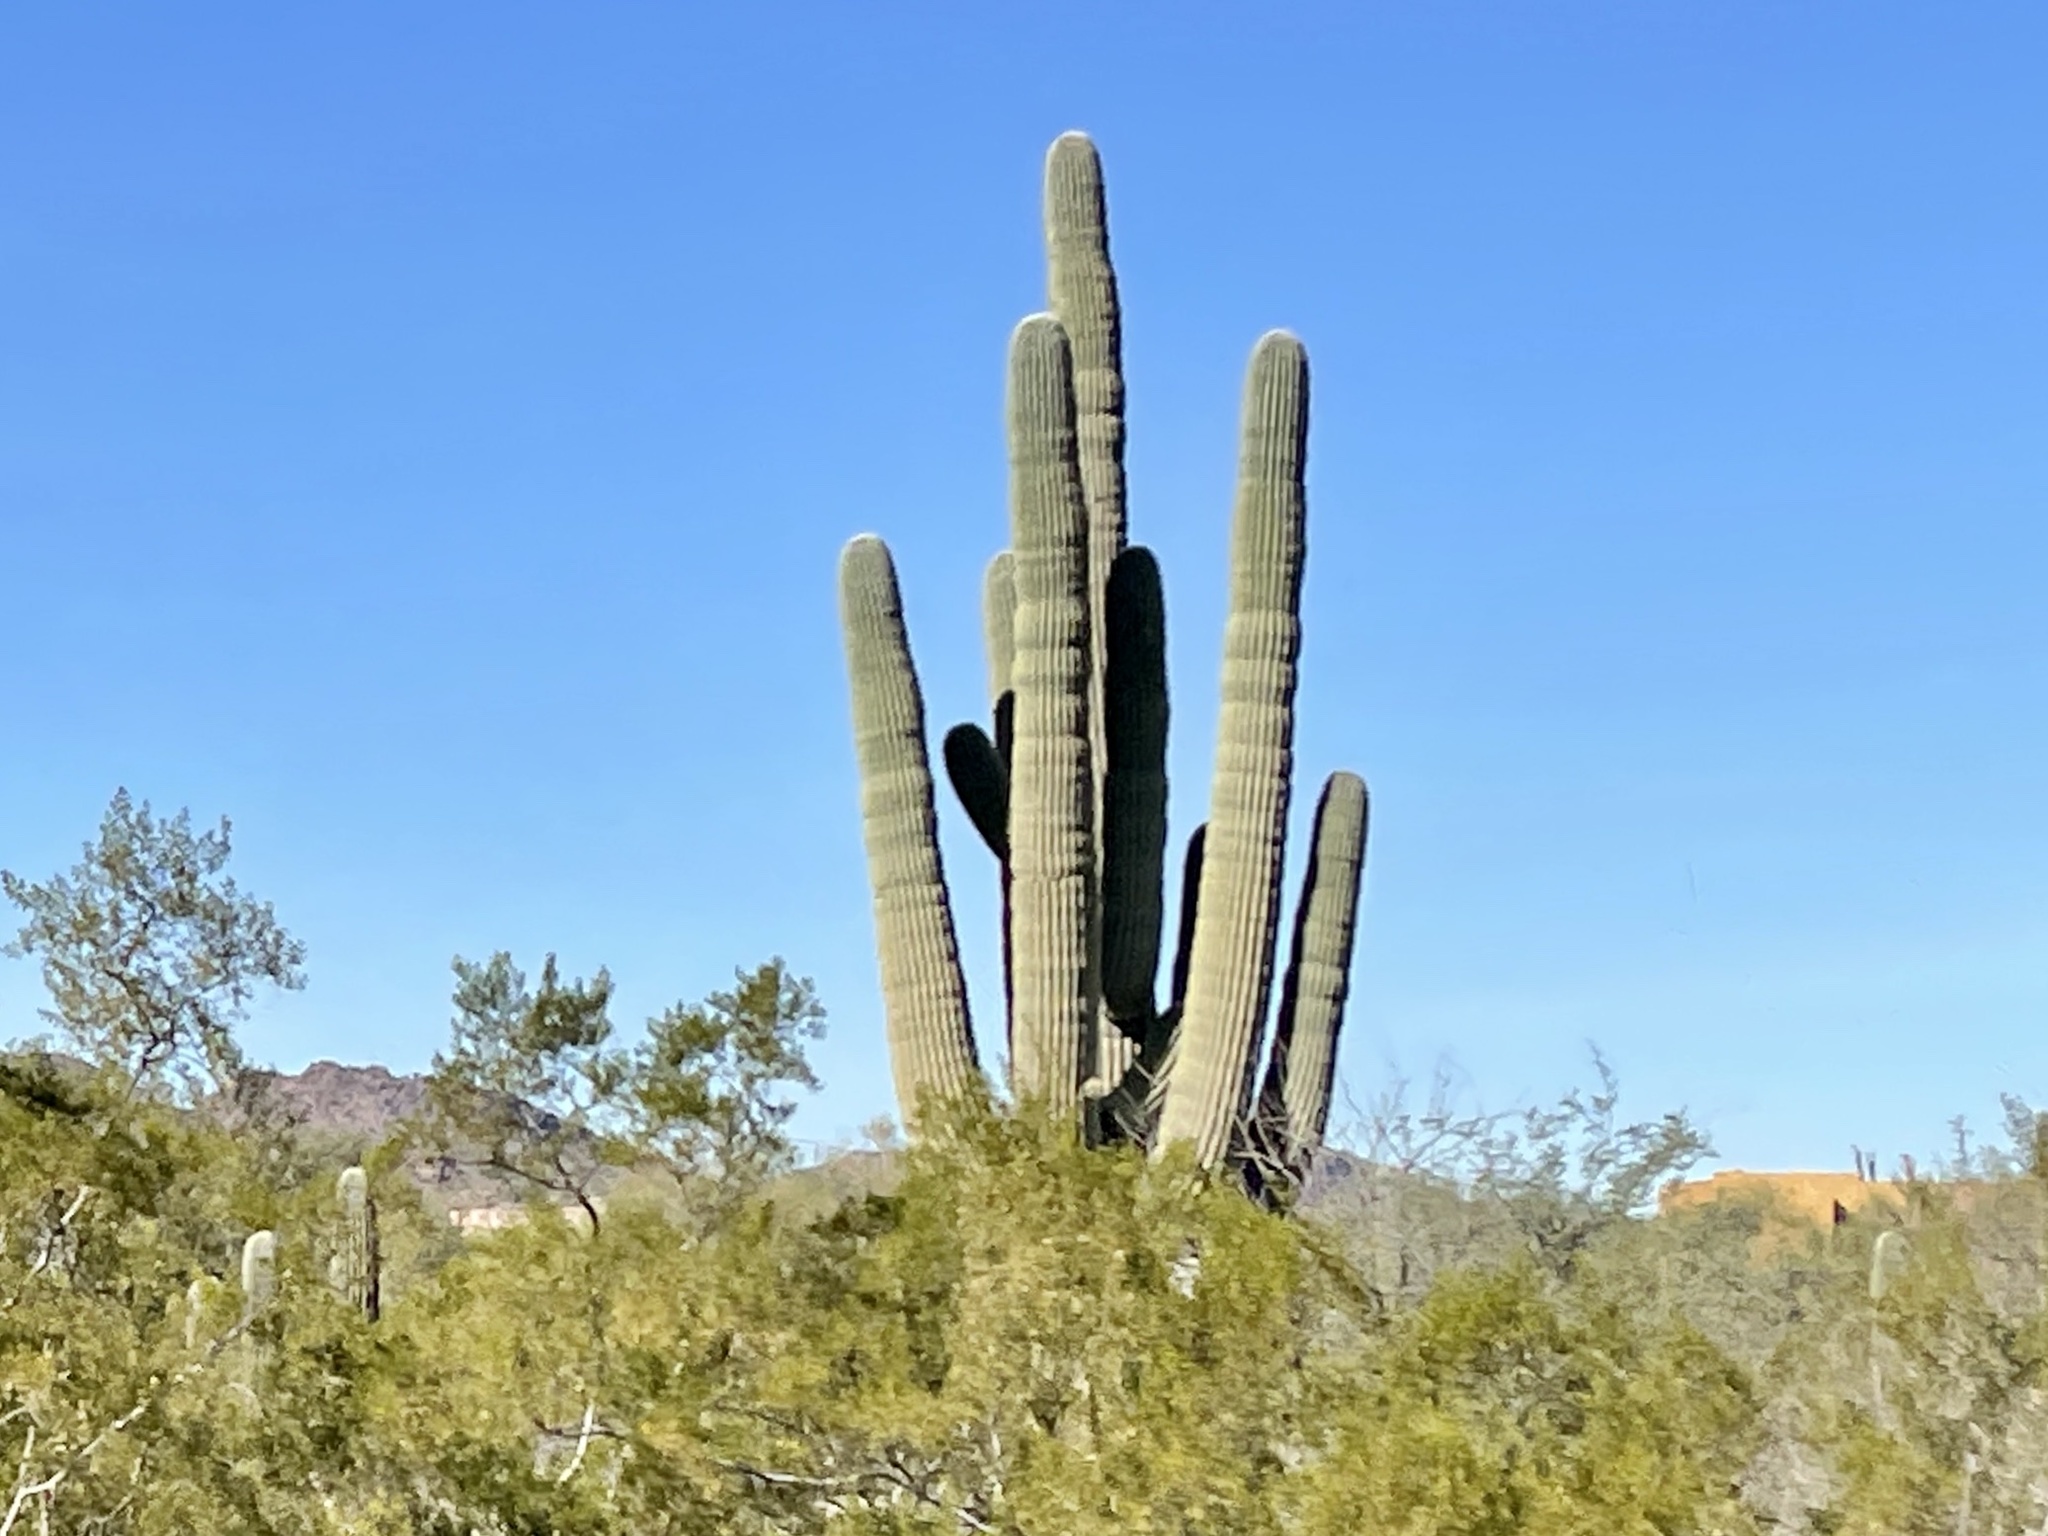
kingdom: Plantae
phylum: Tracheophyta
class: Magnoliopsida
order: Caryophyllales
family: Cactaceae
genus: Carnegiea
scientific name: Carnegiea gigantea
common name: Saguaro
